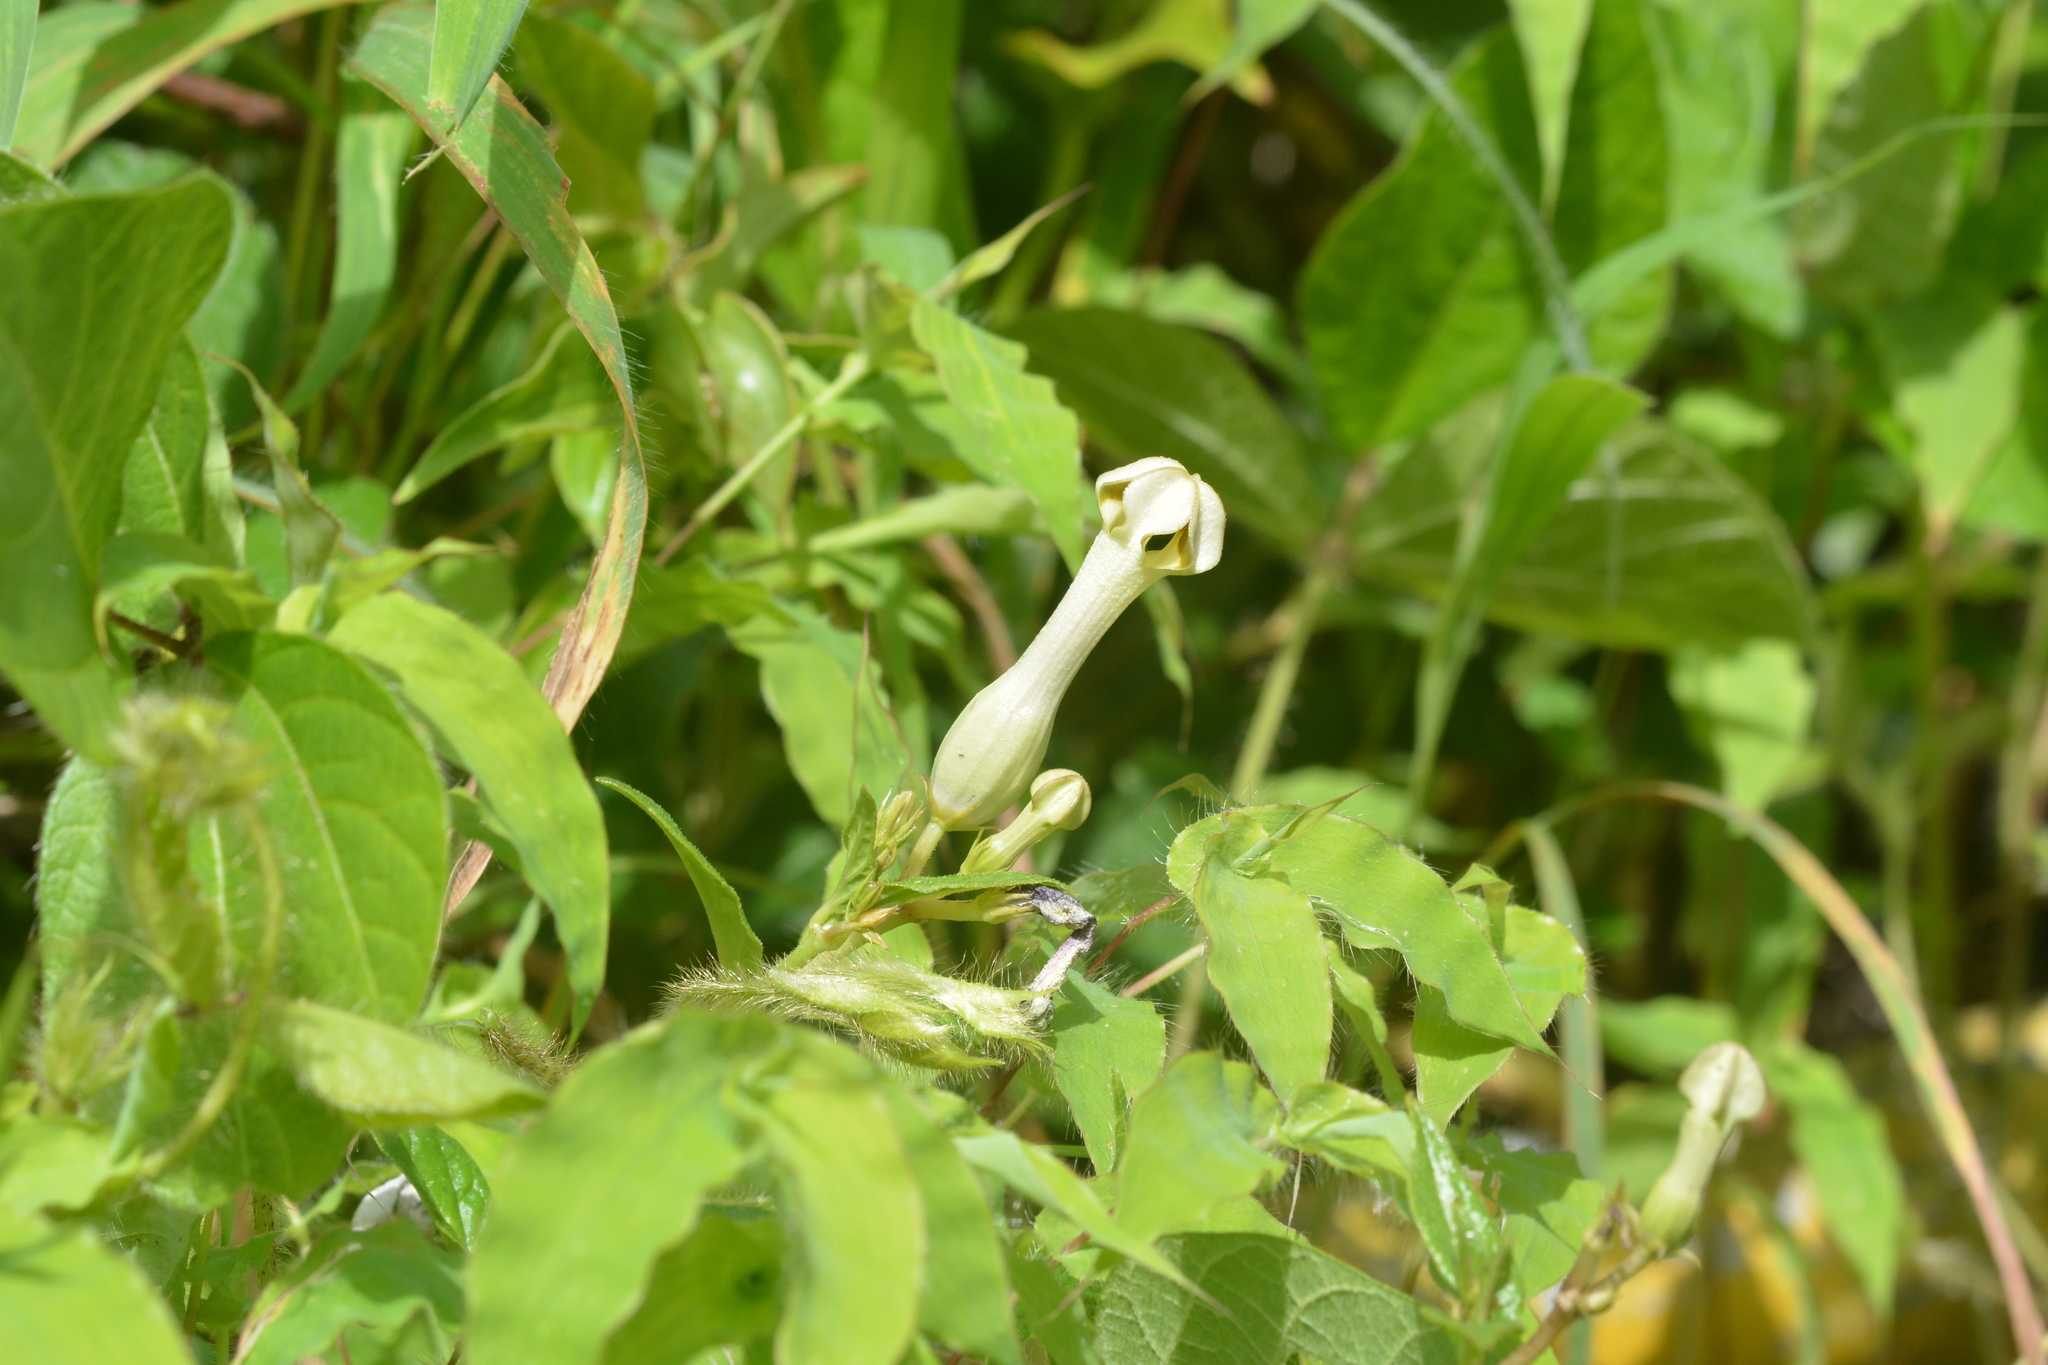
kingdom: Plantae
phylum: Tracheophyta
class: Magnoliopsida
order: Gentianales
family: Apocynaceae
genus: Ceropegia
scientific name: Ceropegia lawii
